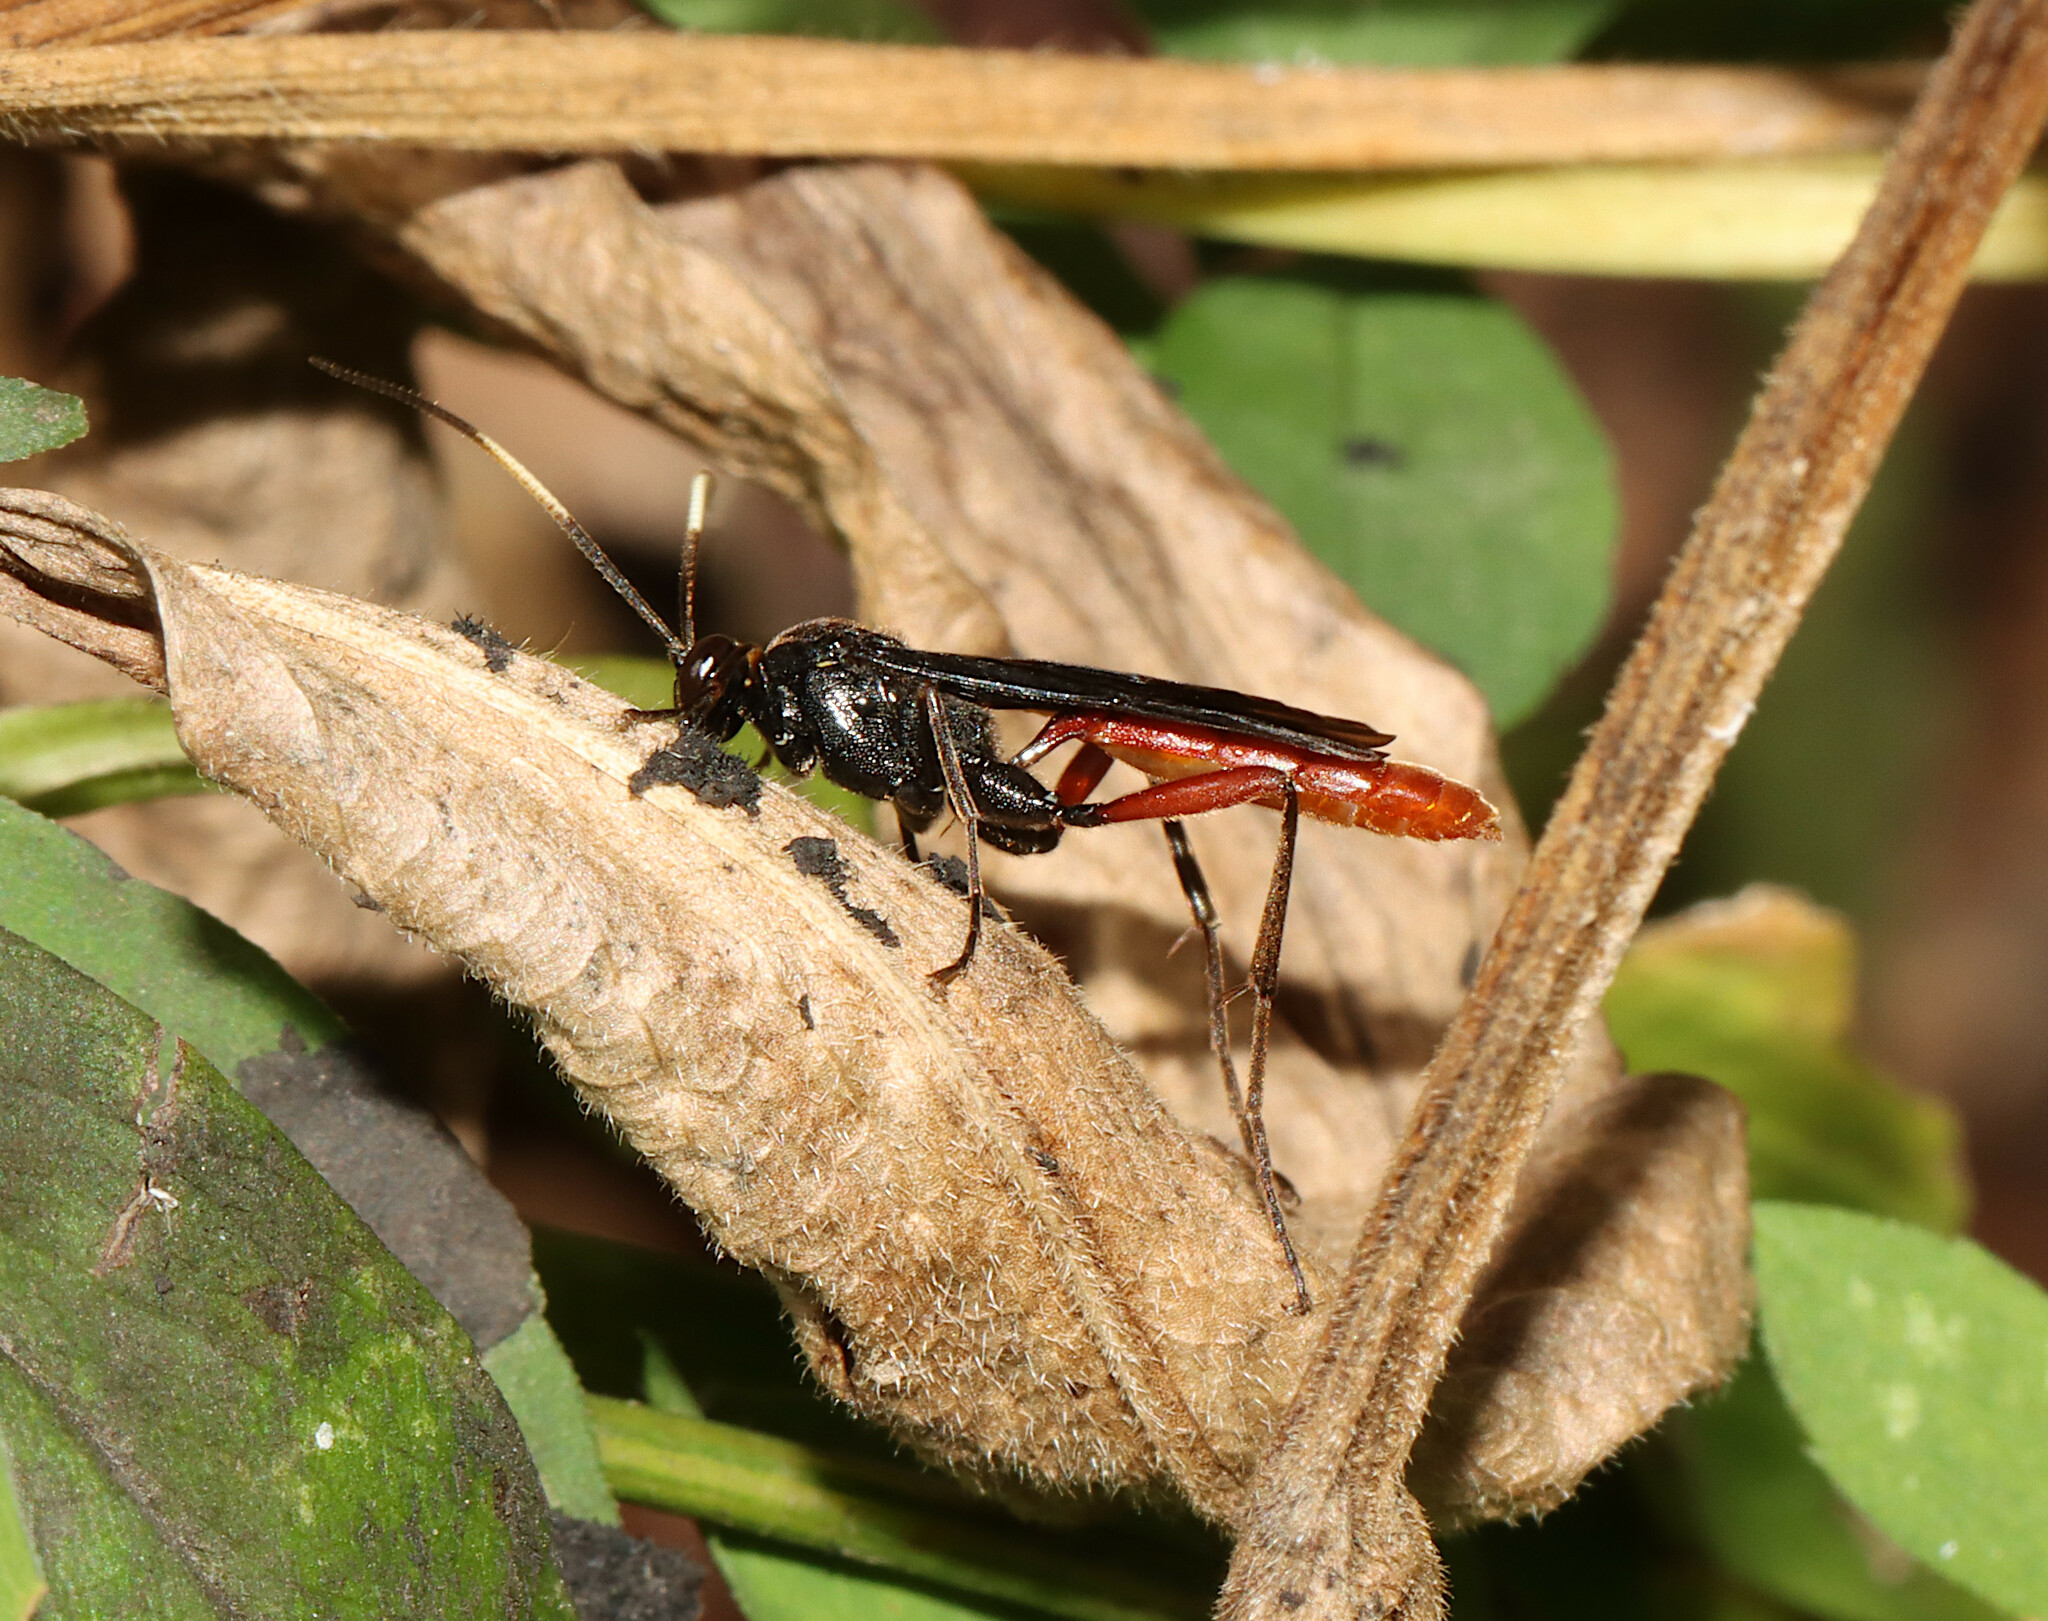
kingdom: Animalia
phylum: Arthropoda
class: Insecta
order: Hymenoptera
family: Ichneumonidae
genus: Limonethe
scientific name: Limonethe maurator
